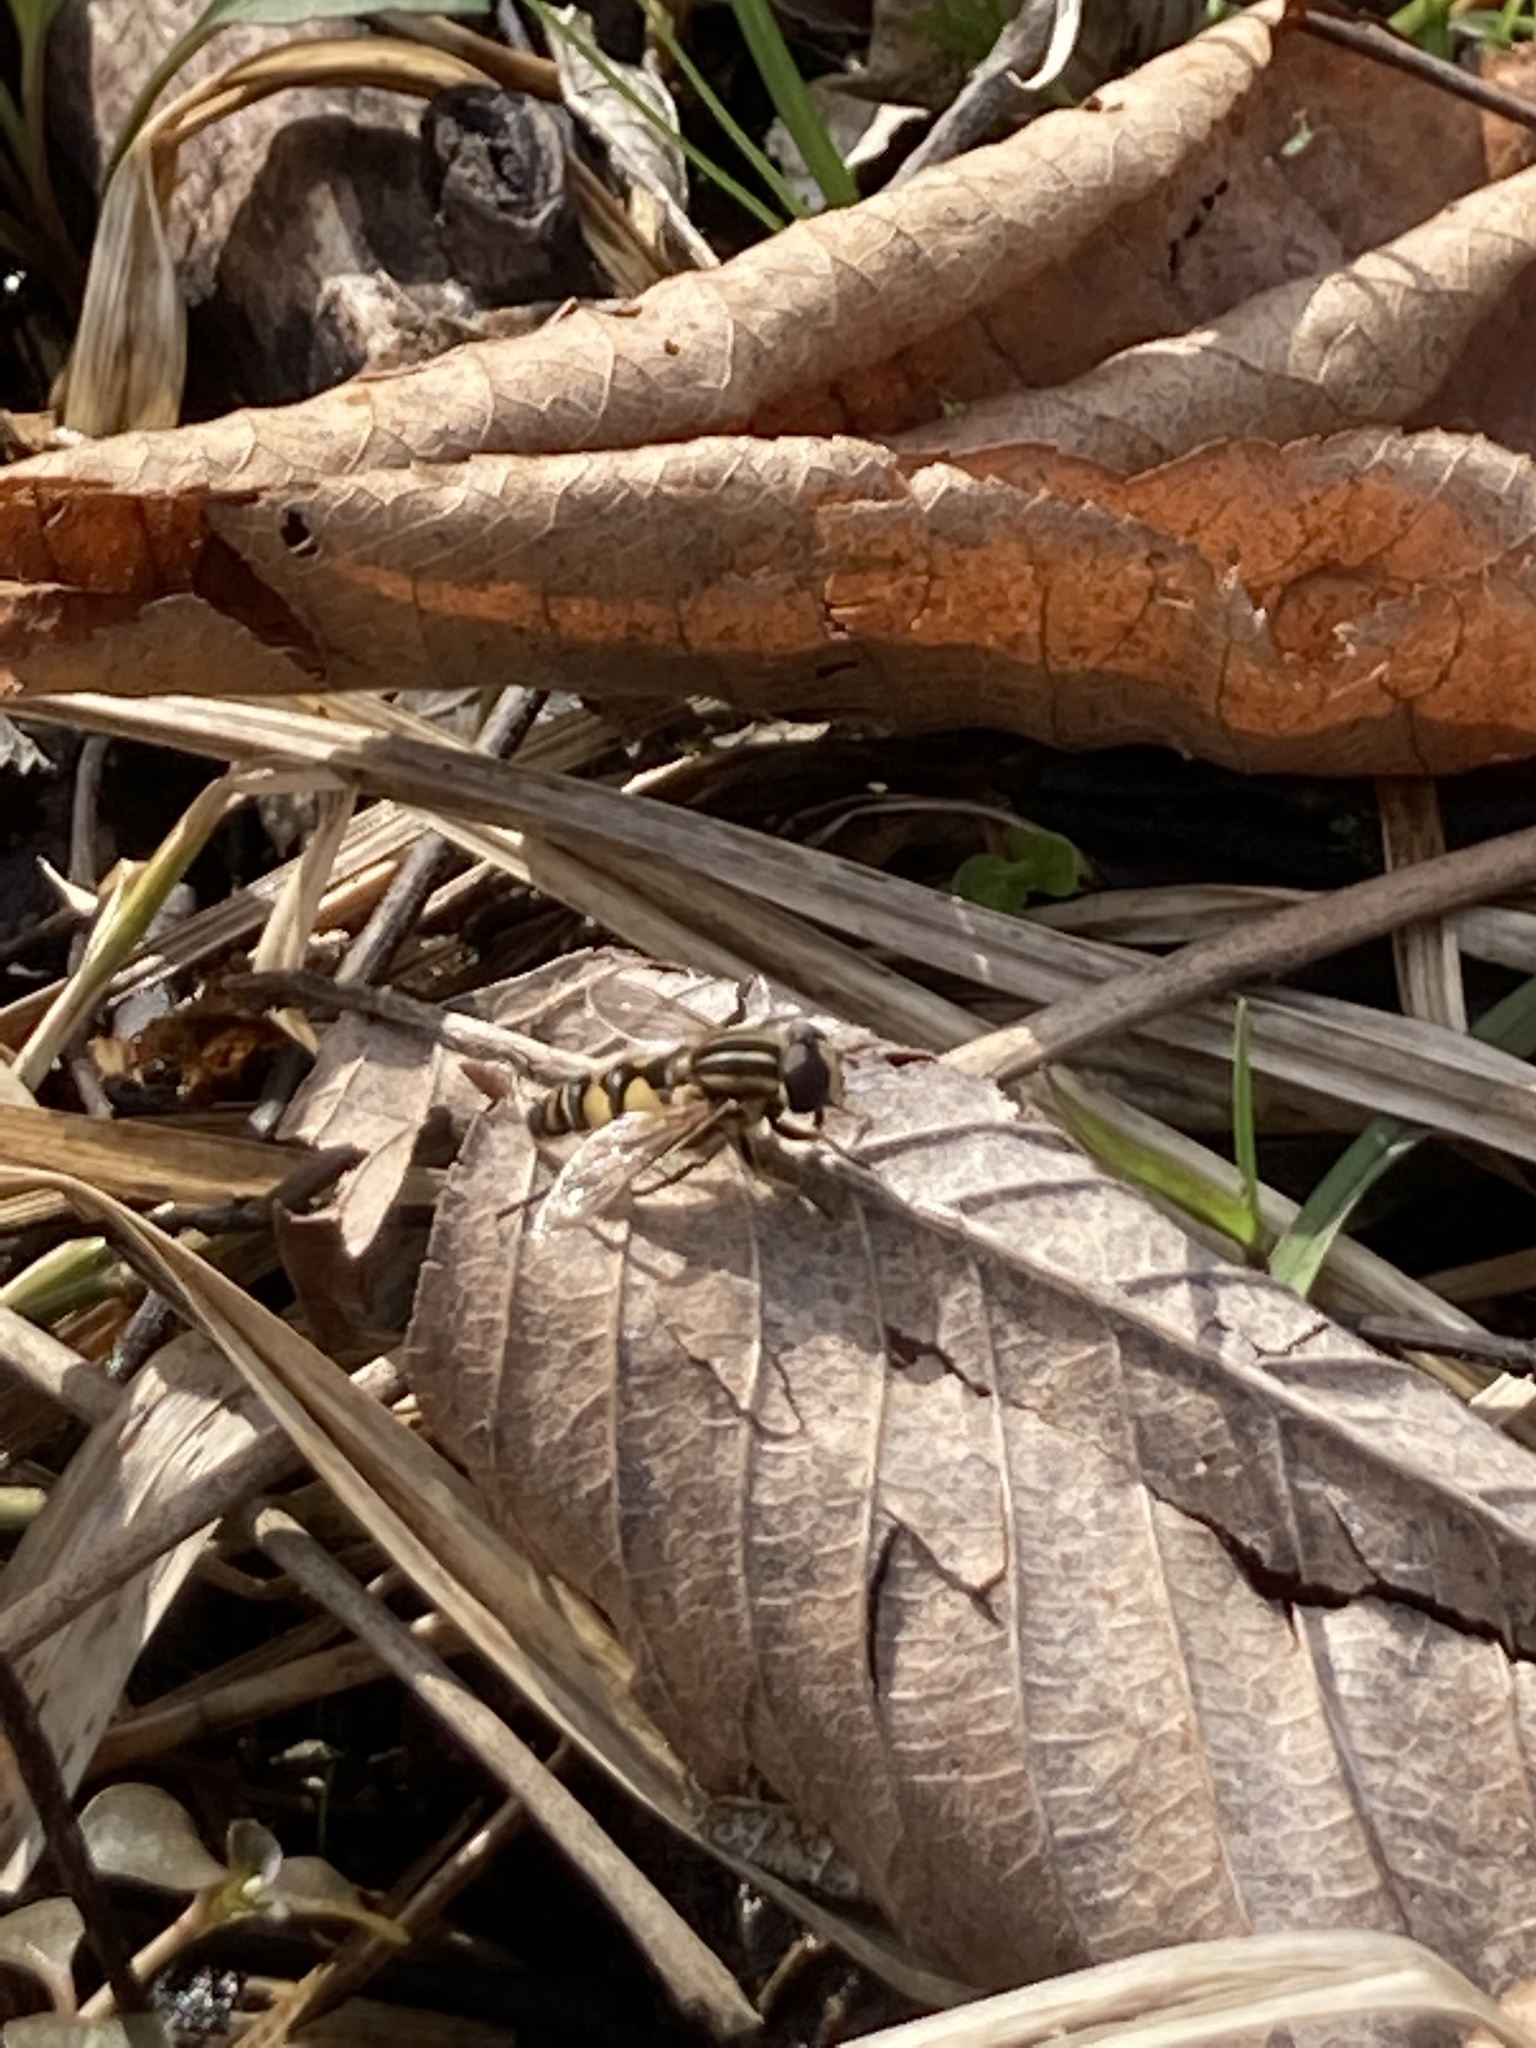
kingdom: Animalia
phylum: Arthropoda
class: Insecta
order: Diptera
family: Syrphidae
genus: Helophilus
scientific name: Helophilus fasciatus
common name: Narrow-headed marsh fly
